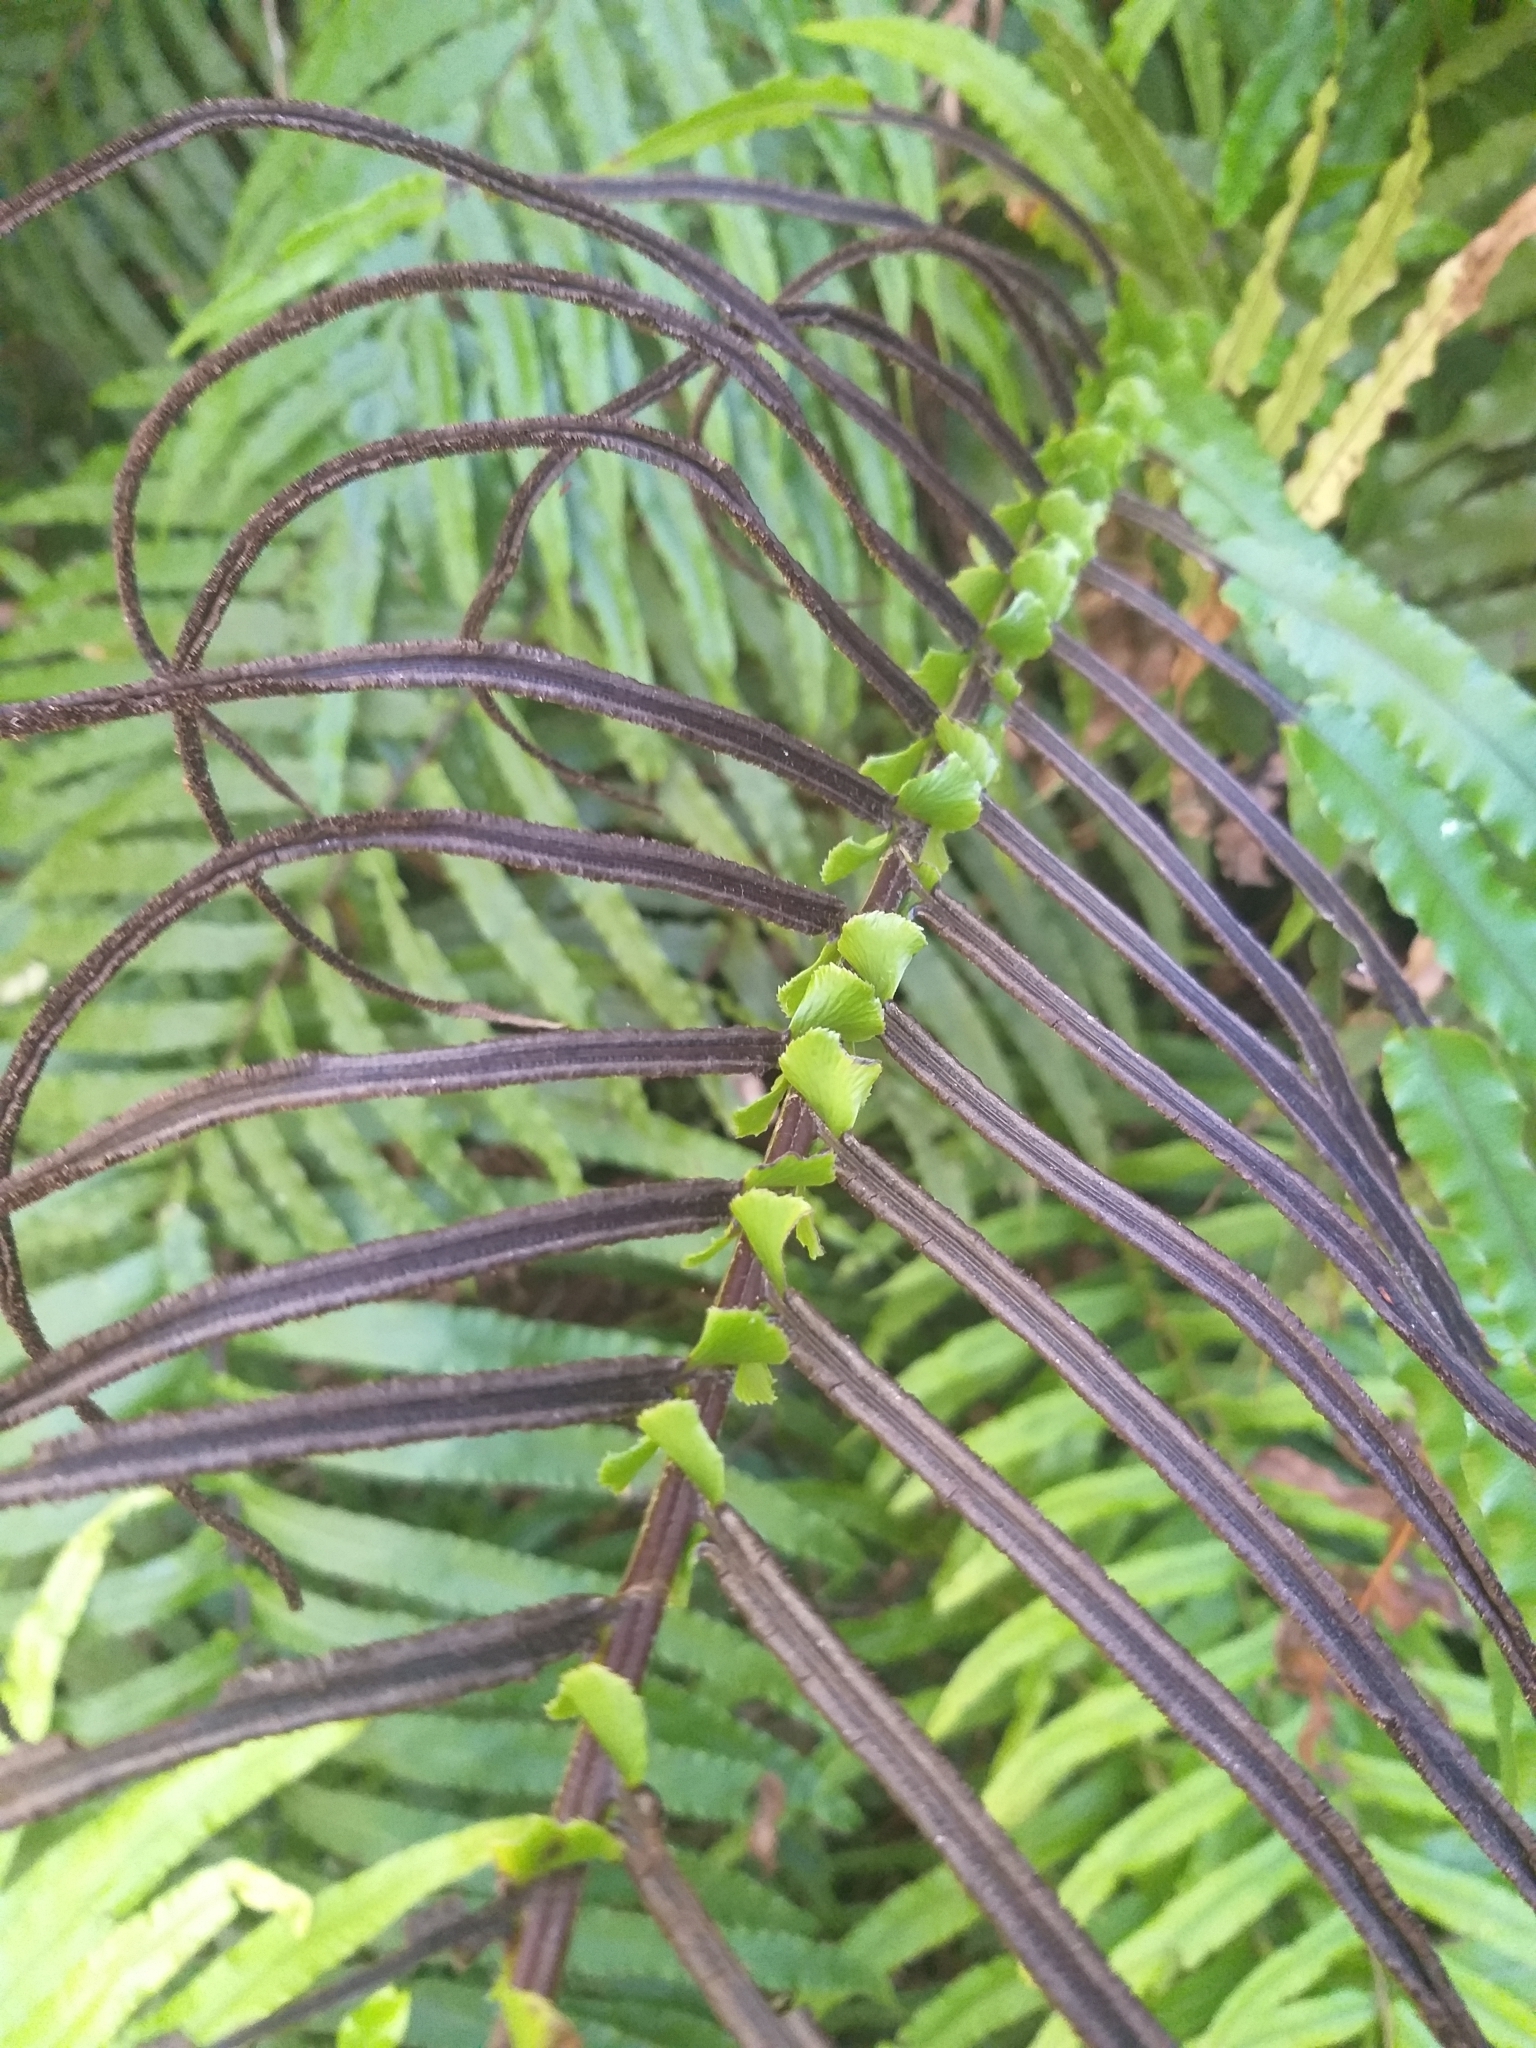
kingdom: Plantae
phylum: Tracheophyta
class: Polypodiopsida
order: Polypodiales
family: Blechnaceae
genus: Blechnum
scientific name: Blechnum
